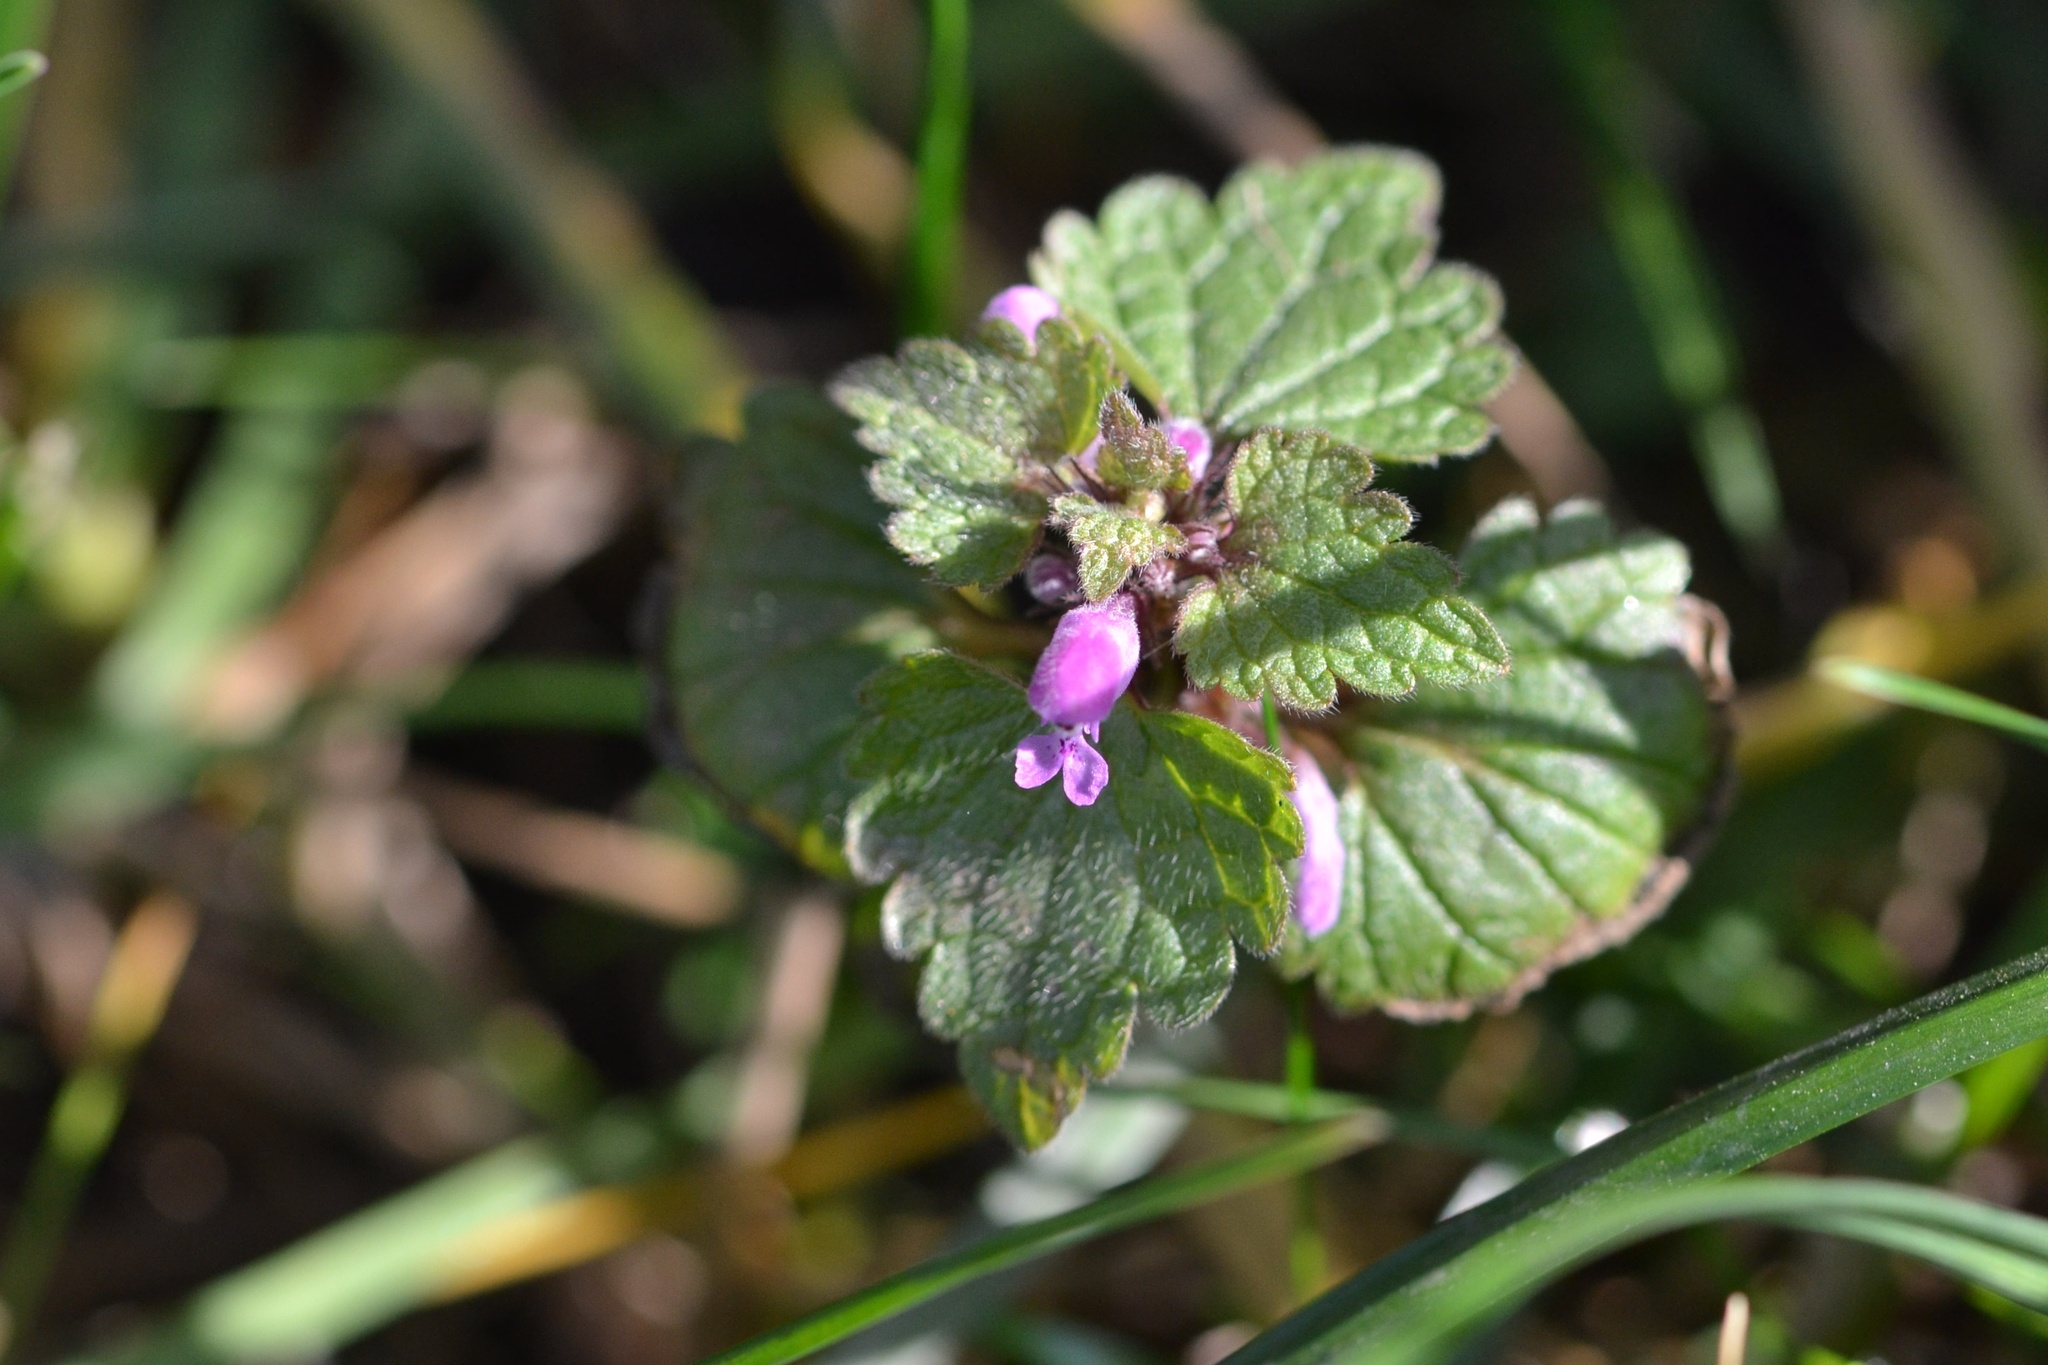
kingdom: Plantae
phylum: Tracheophyta
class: Magnoliopsida
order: Lamiales
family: Lamiaceae
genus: Lamium
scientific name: Lamium purpureum
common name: Red dead-nettle
